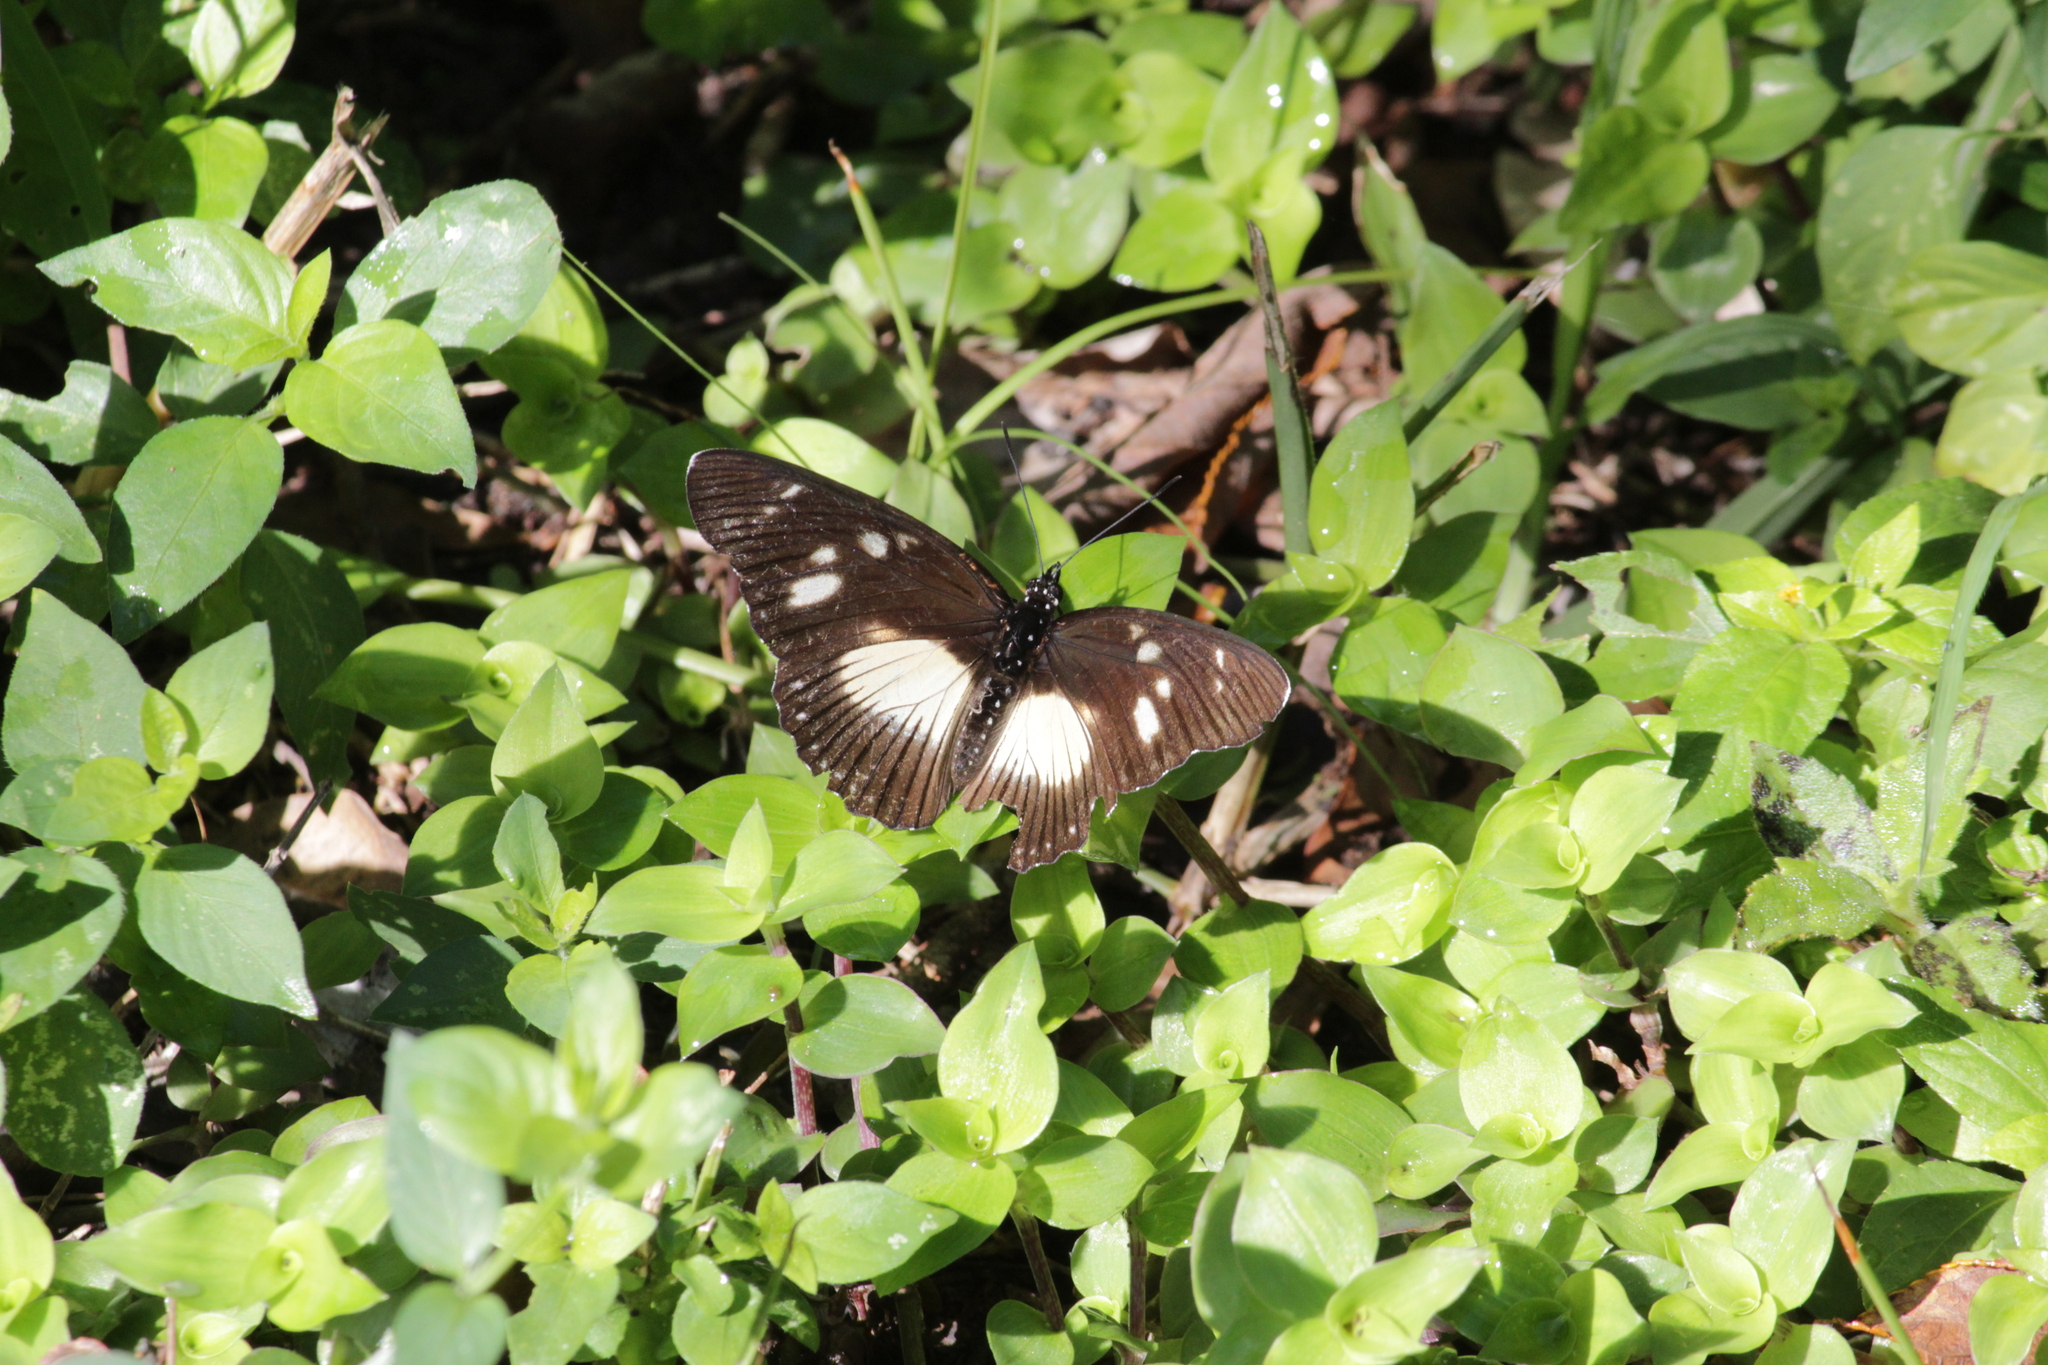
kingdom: Animalia
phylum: Arthropoda
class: Insecta
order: Lepidoptera
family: Nymphalidae
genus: Chloropoea
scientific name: Chloropoea lucretia
